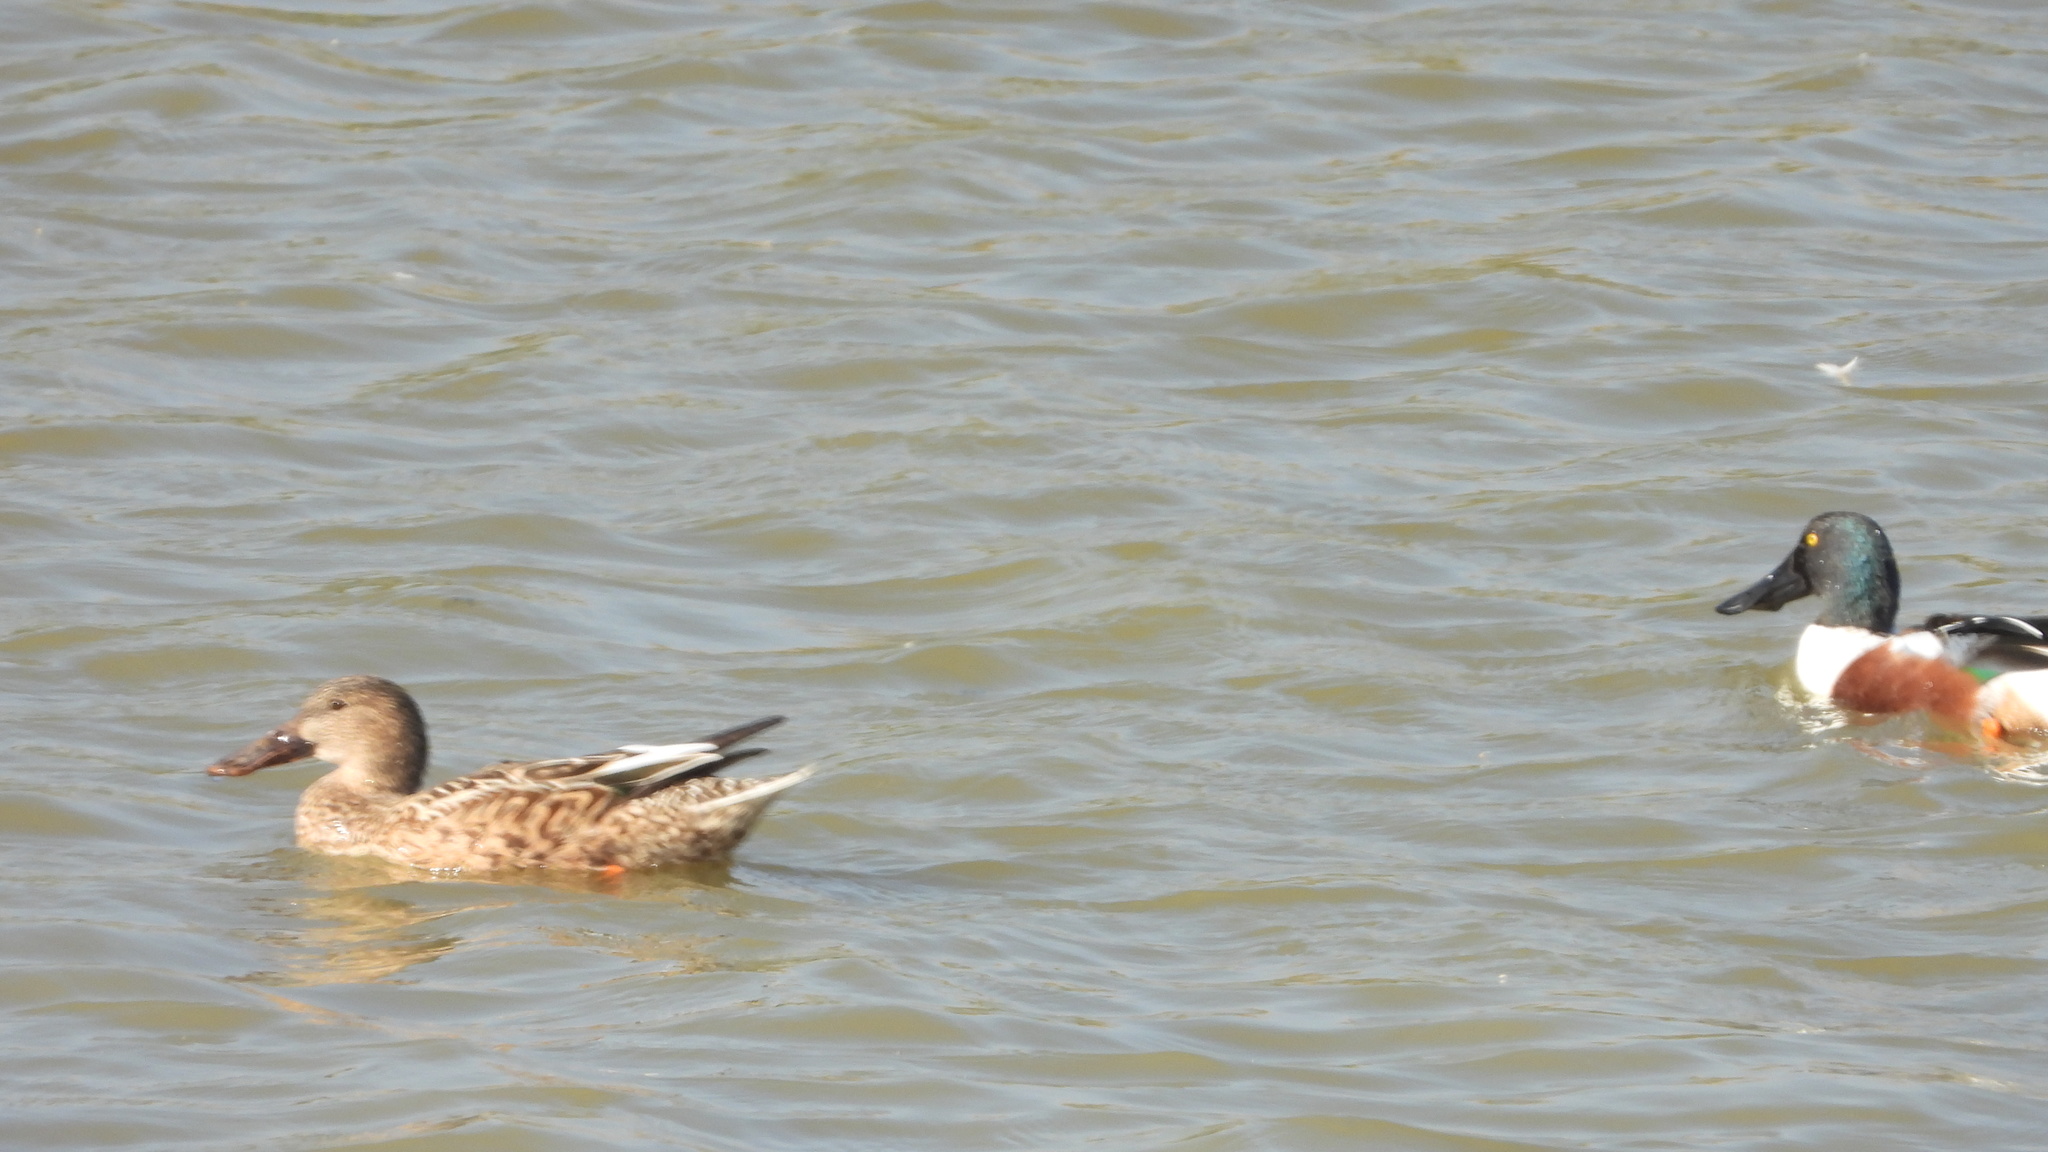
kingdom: Animalia
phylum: Chordata
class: Aves
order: Anseriformes
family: Anatidae
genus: Spatula
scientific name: Spatula clypeata
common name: Northern shoveler
